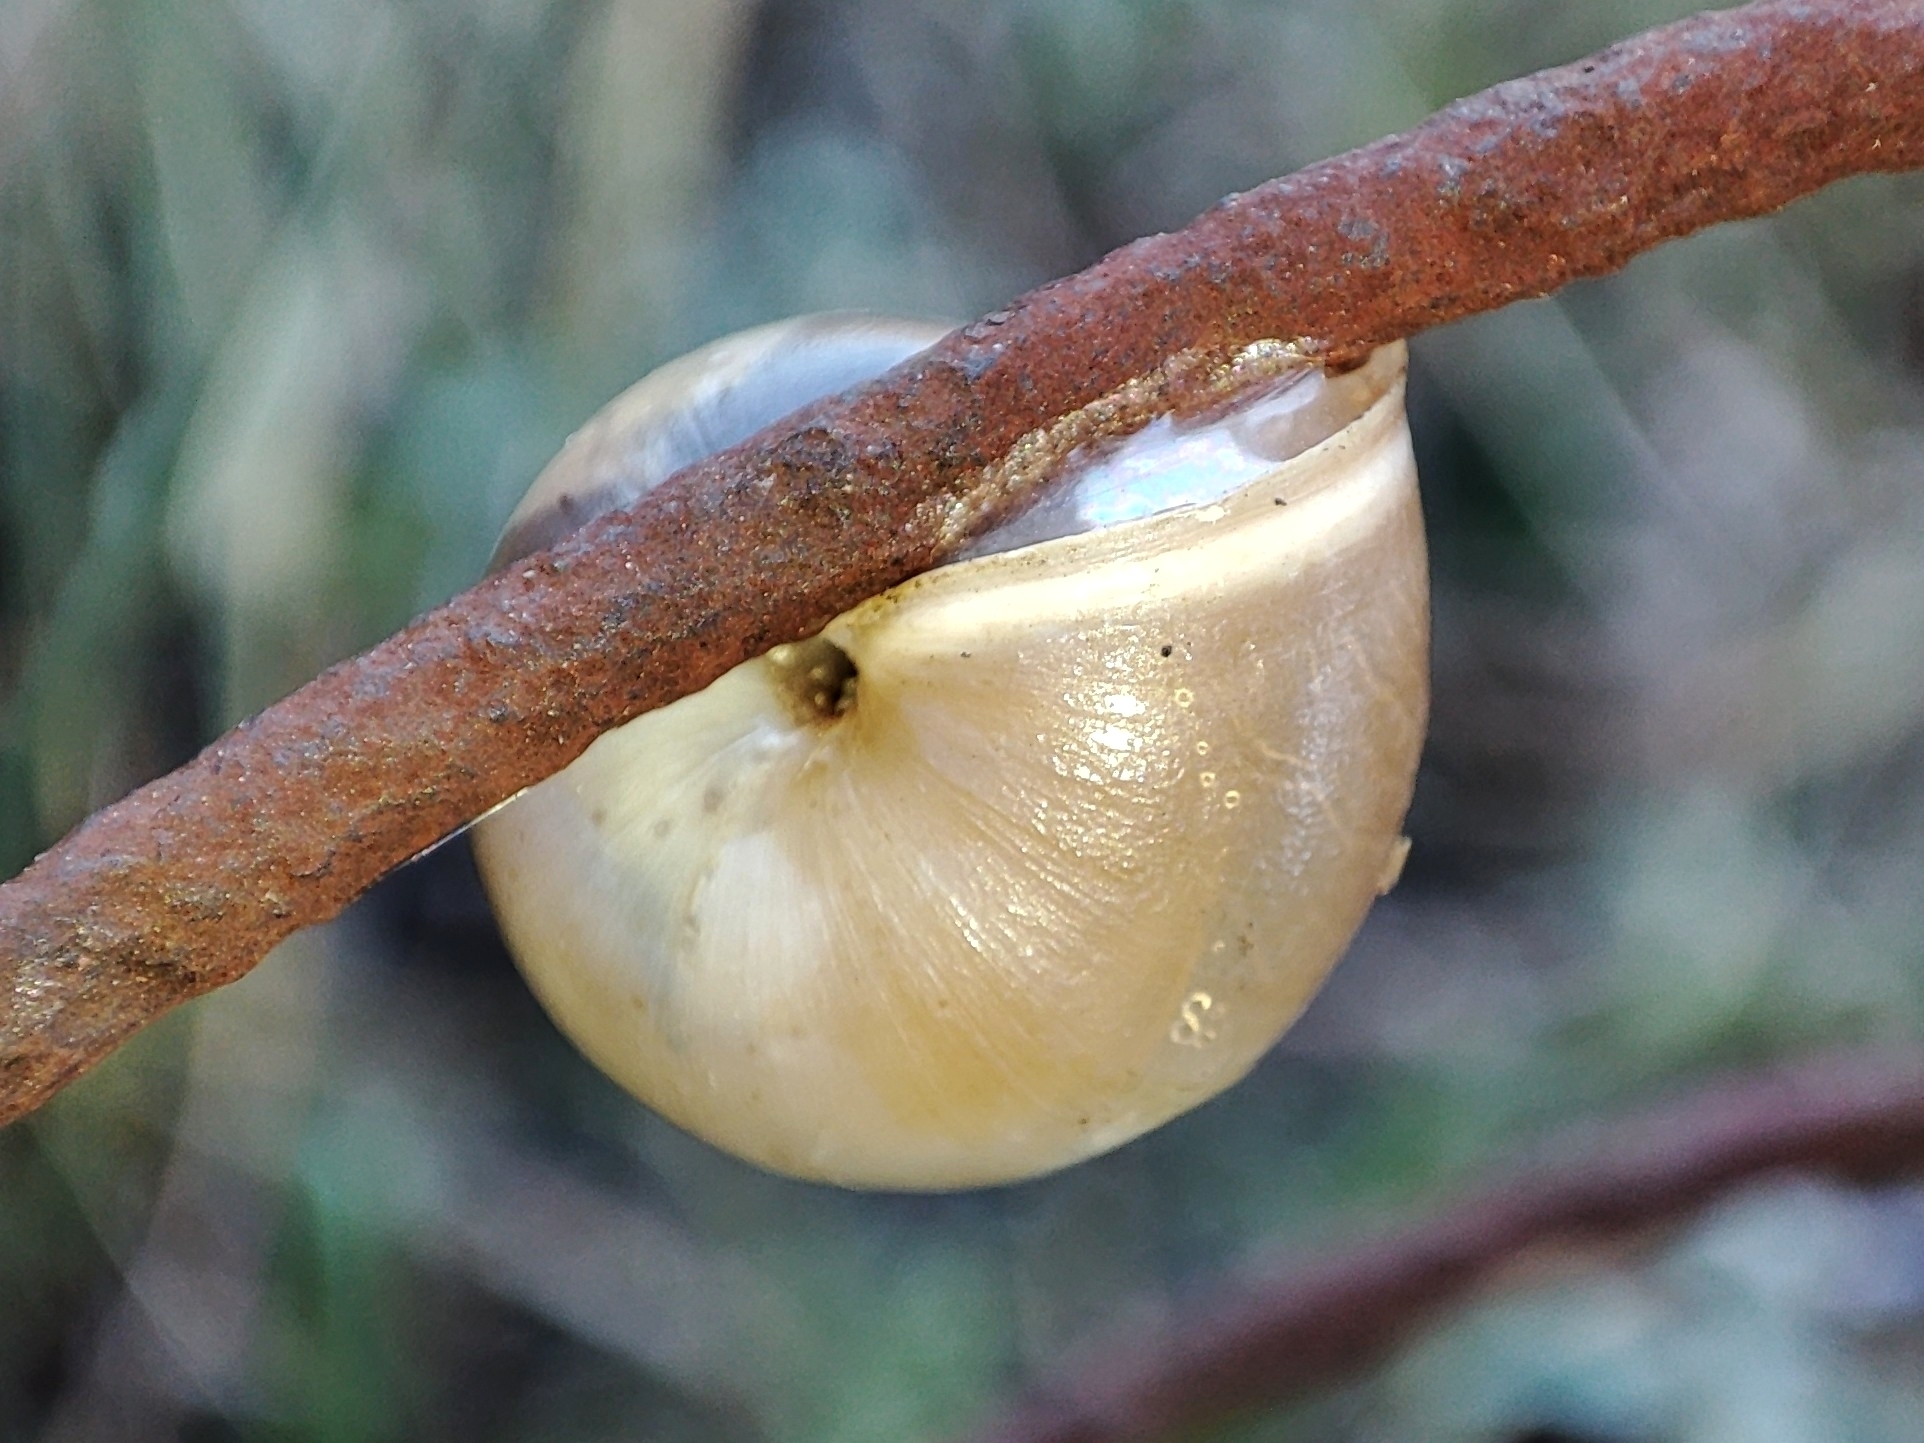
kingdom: Animalia
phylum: Mollusca
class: Gastropoda
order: Stylommatophora
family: Hygromiidae
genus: Monacha
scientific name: Monacha cartusiana
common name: Carthusian snail
